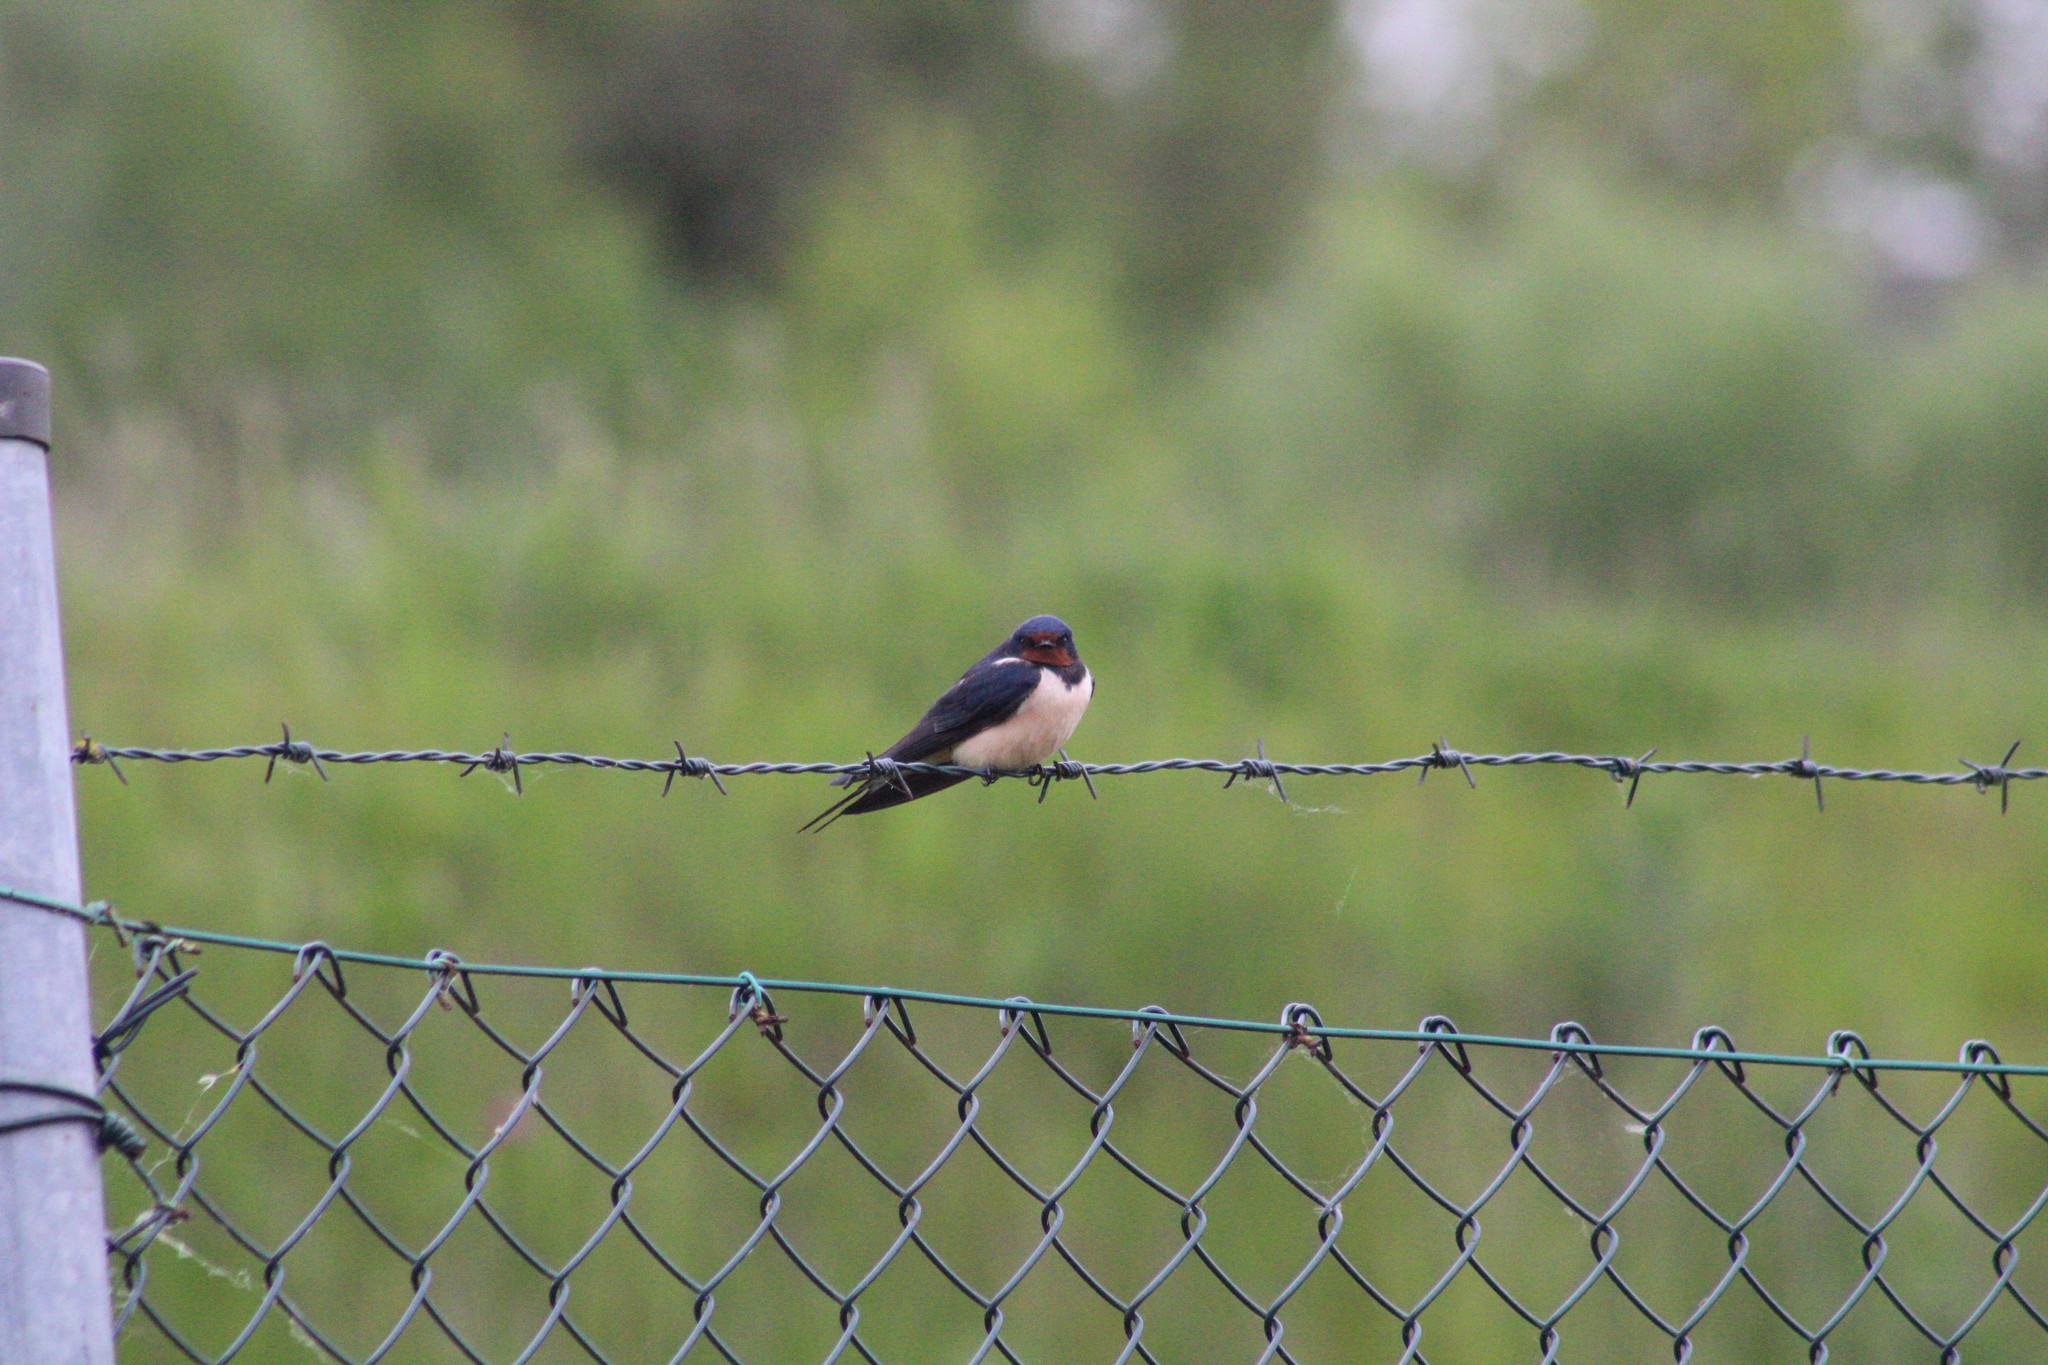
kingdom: Animalia
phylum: Chordata
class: Aves
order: Passeriformes
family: Hirundinidae
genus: Hirundo
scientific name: Hirundo rustica
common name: Barn swallow
